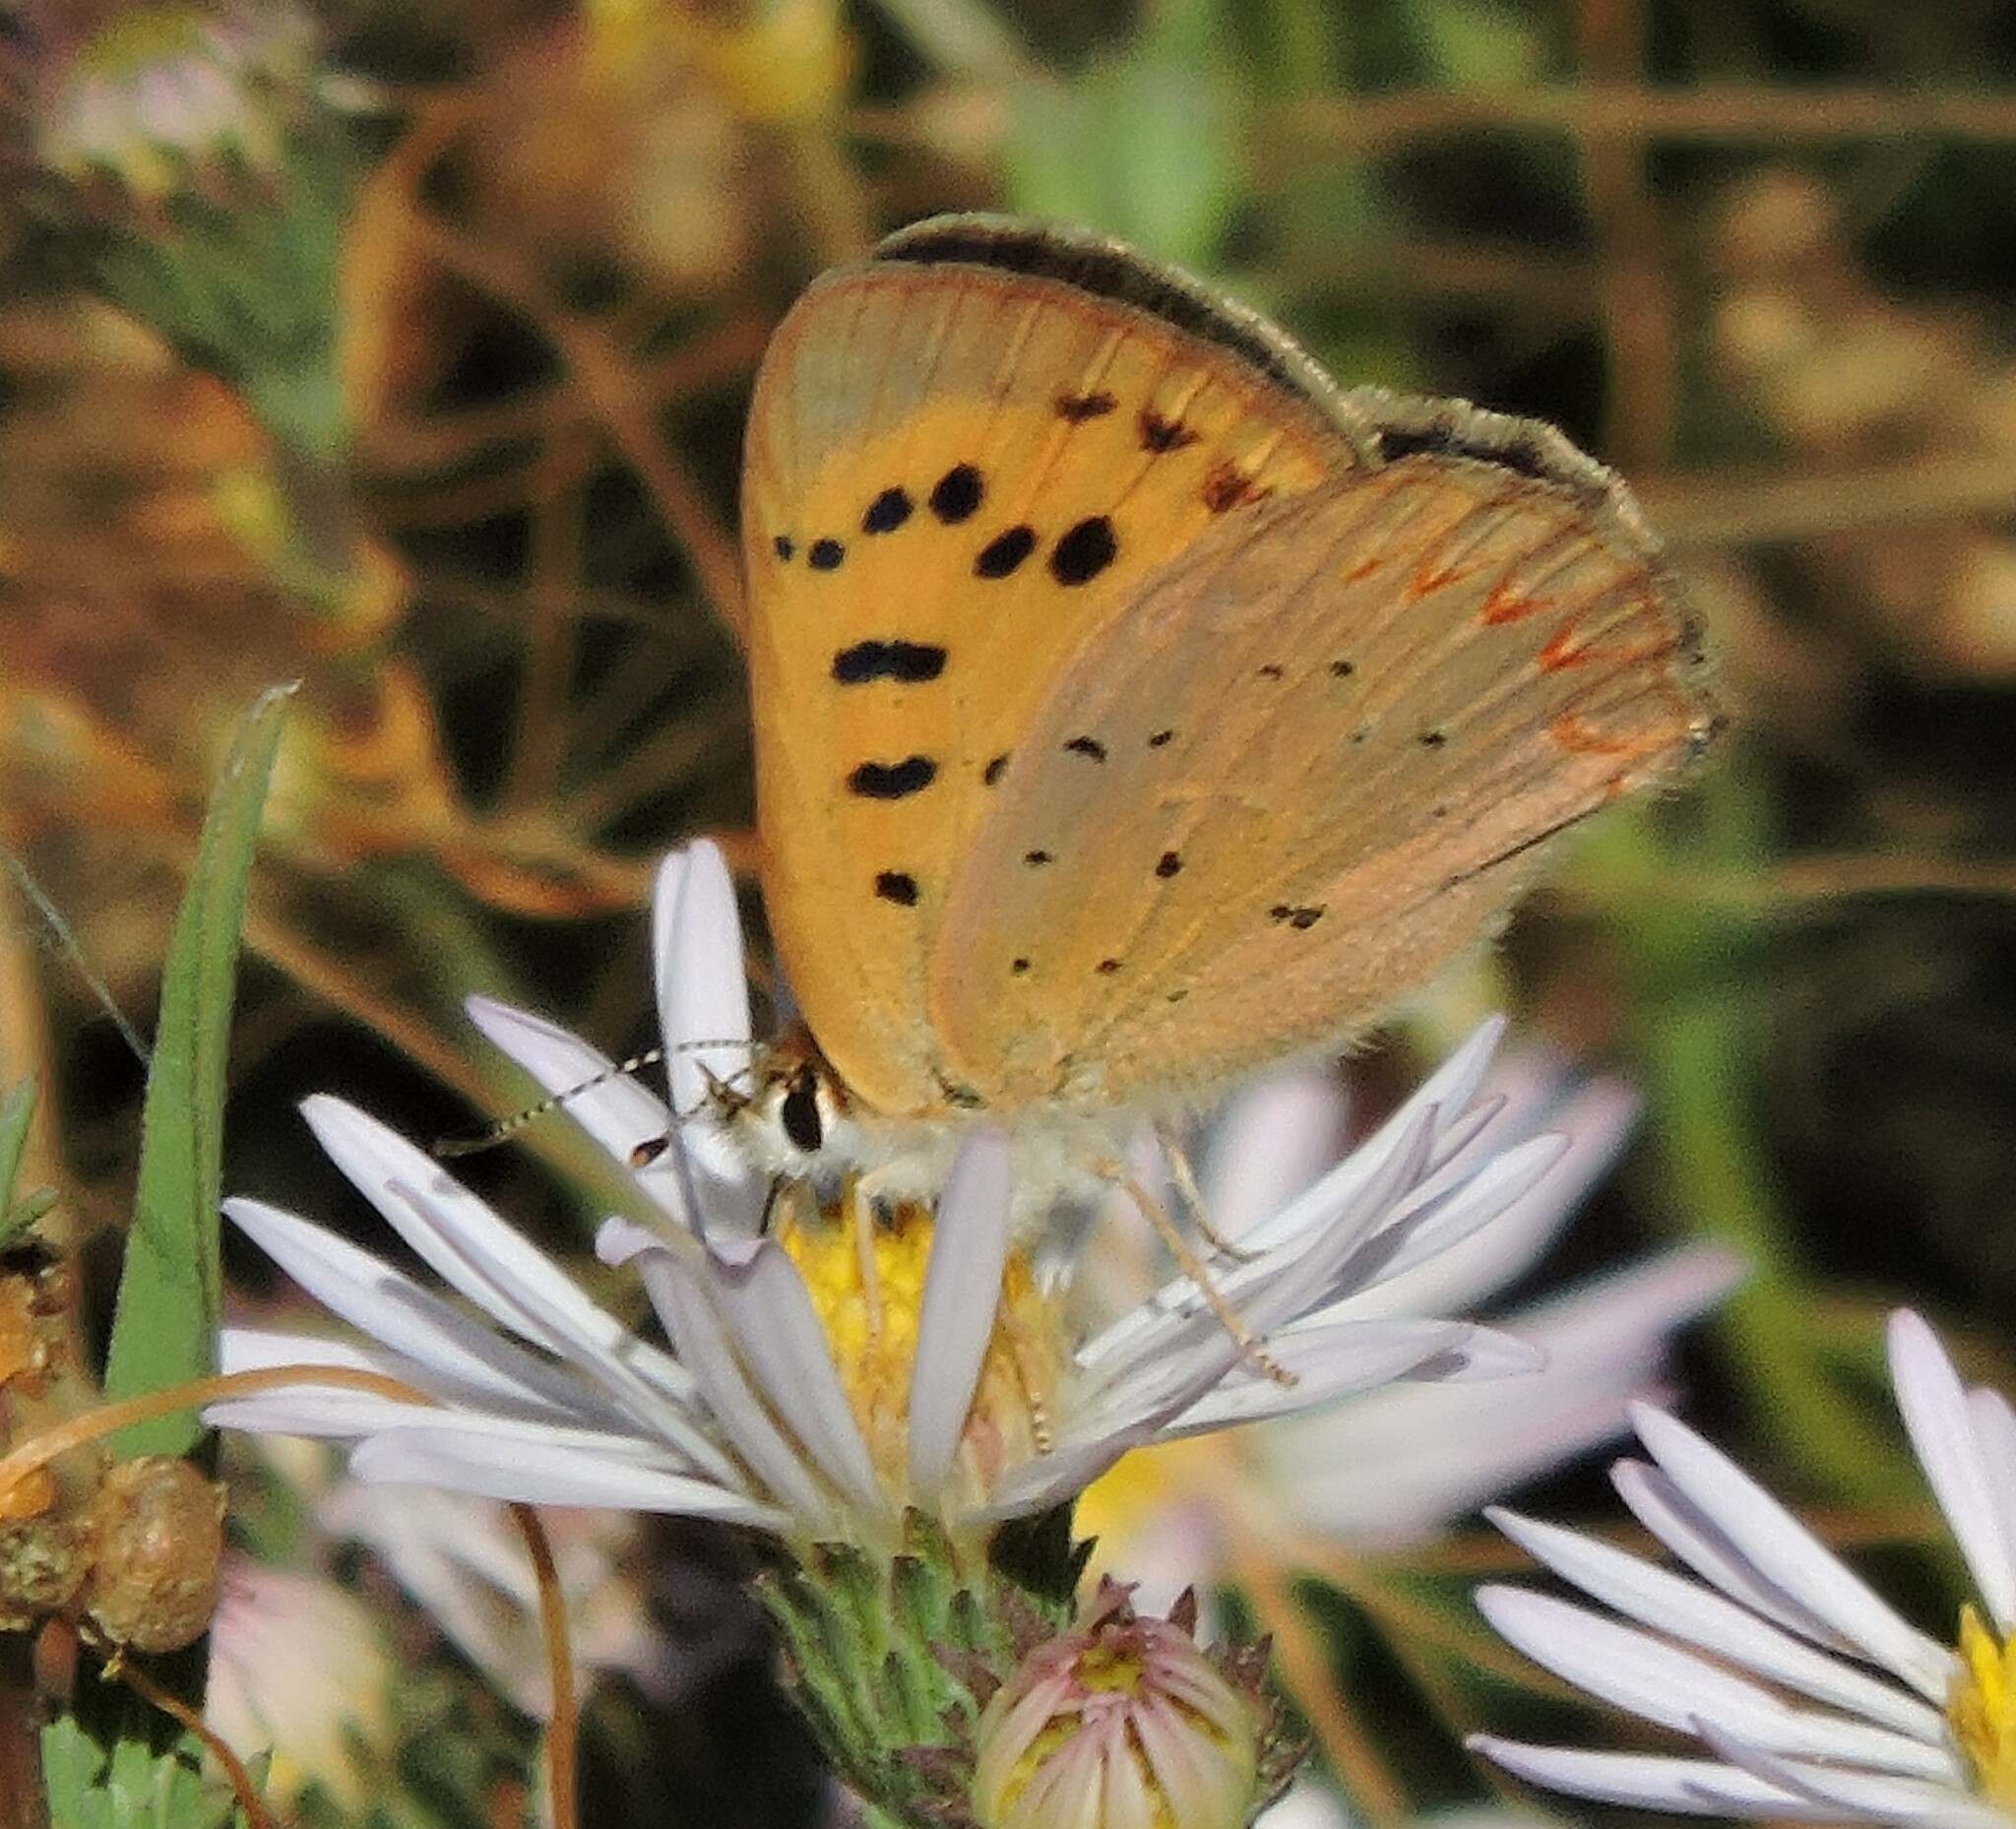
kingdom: Animalia
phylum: Arthropoda
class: Insecta
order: Lepidoptera
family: Lycaenidae
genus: Tharsalea
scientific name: Tharsalea helloides
